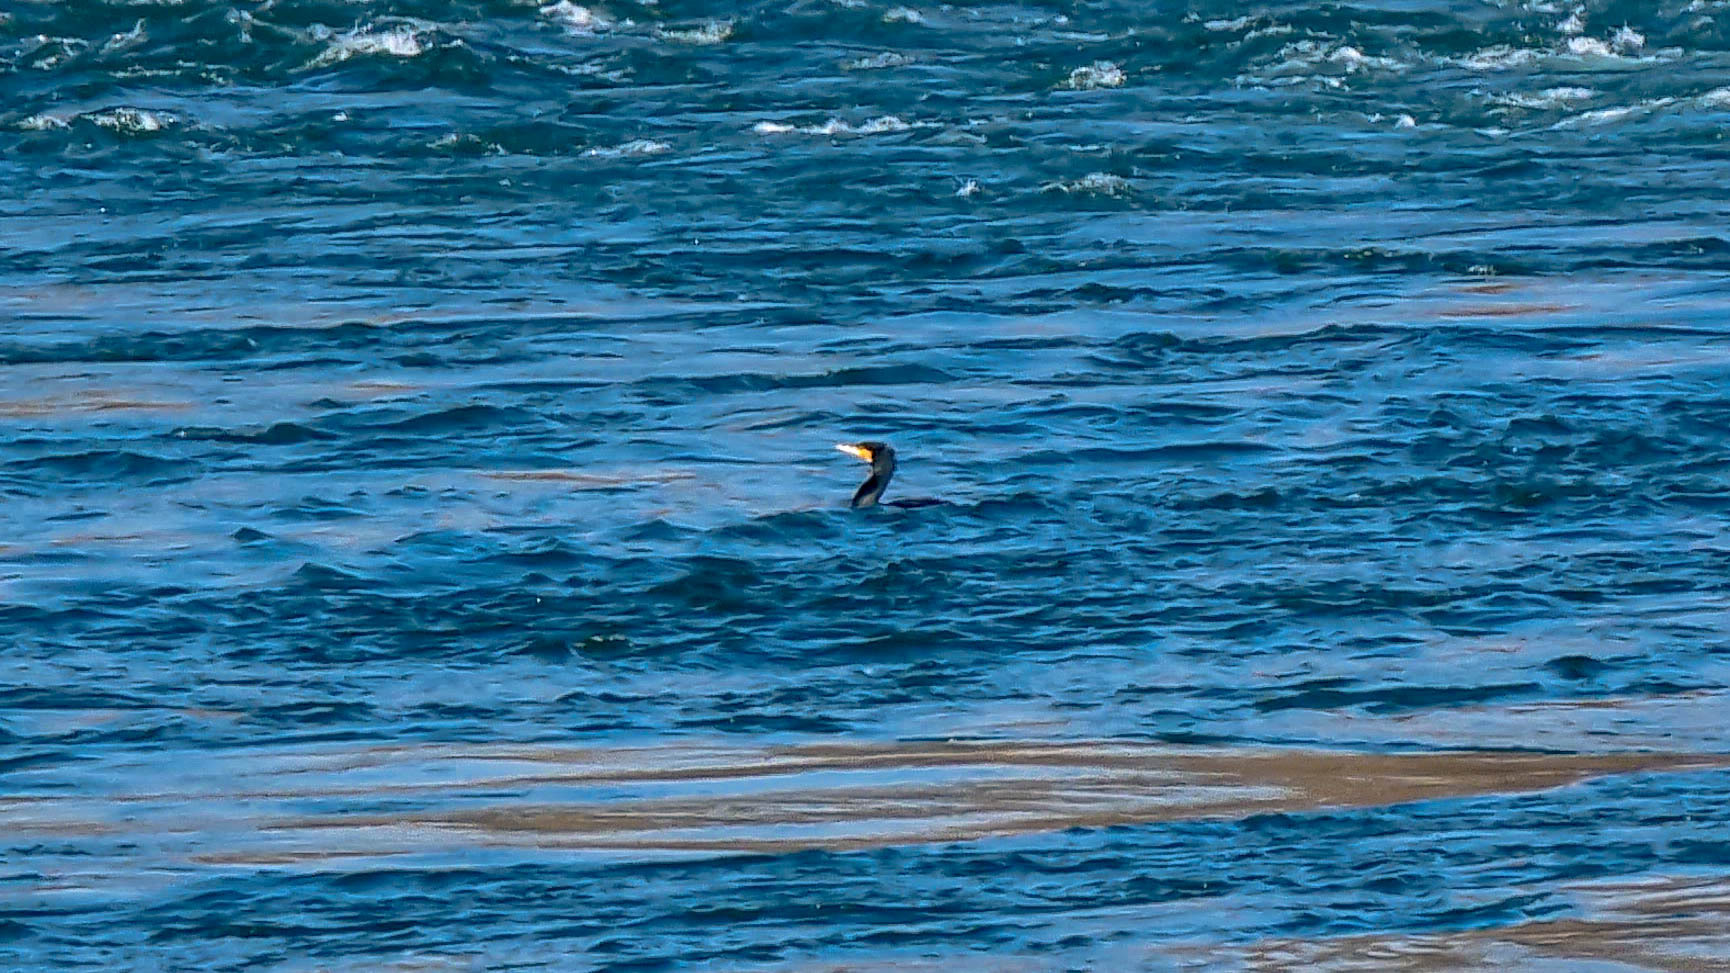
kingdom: Animalia
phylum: Chordata
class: Aves
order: Suliformes
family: Phalacrocoracidae
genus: Phalacrocorax
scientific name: Phalacrocorax carbo
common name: Great cormorant
